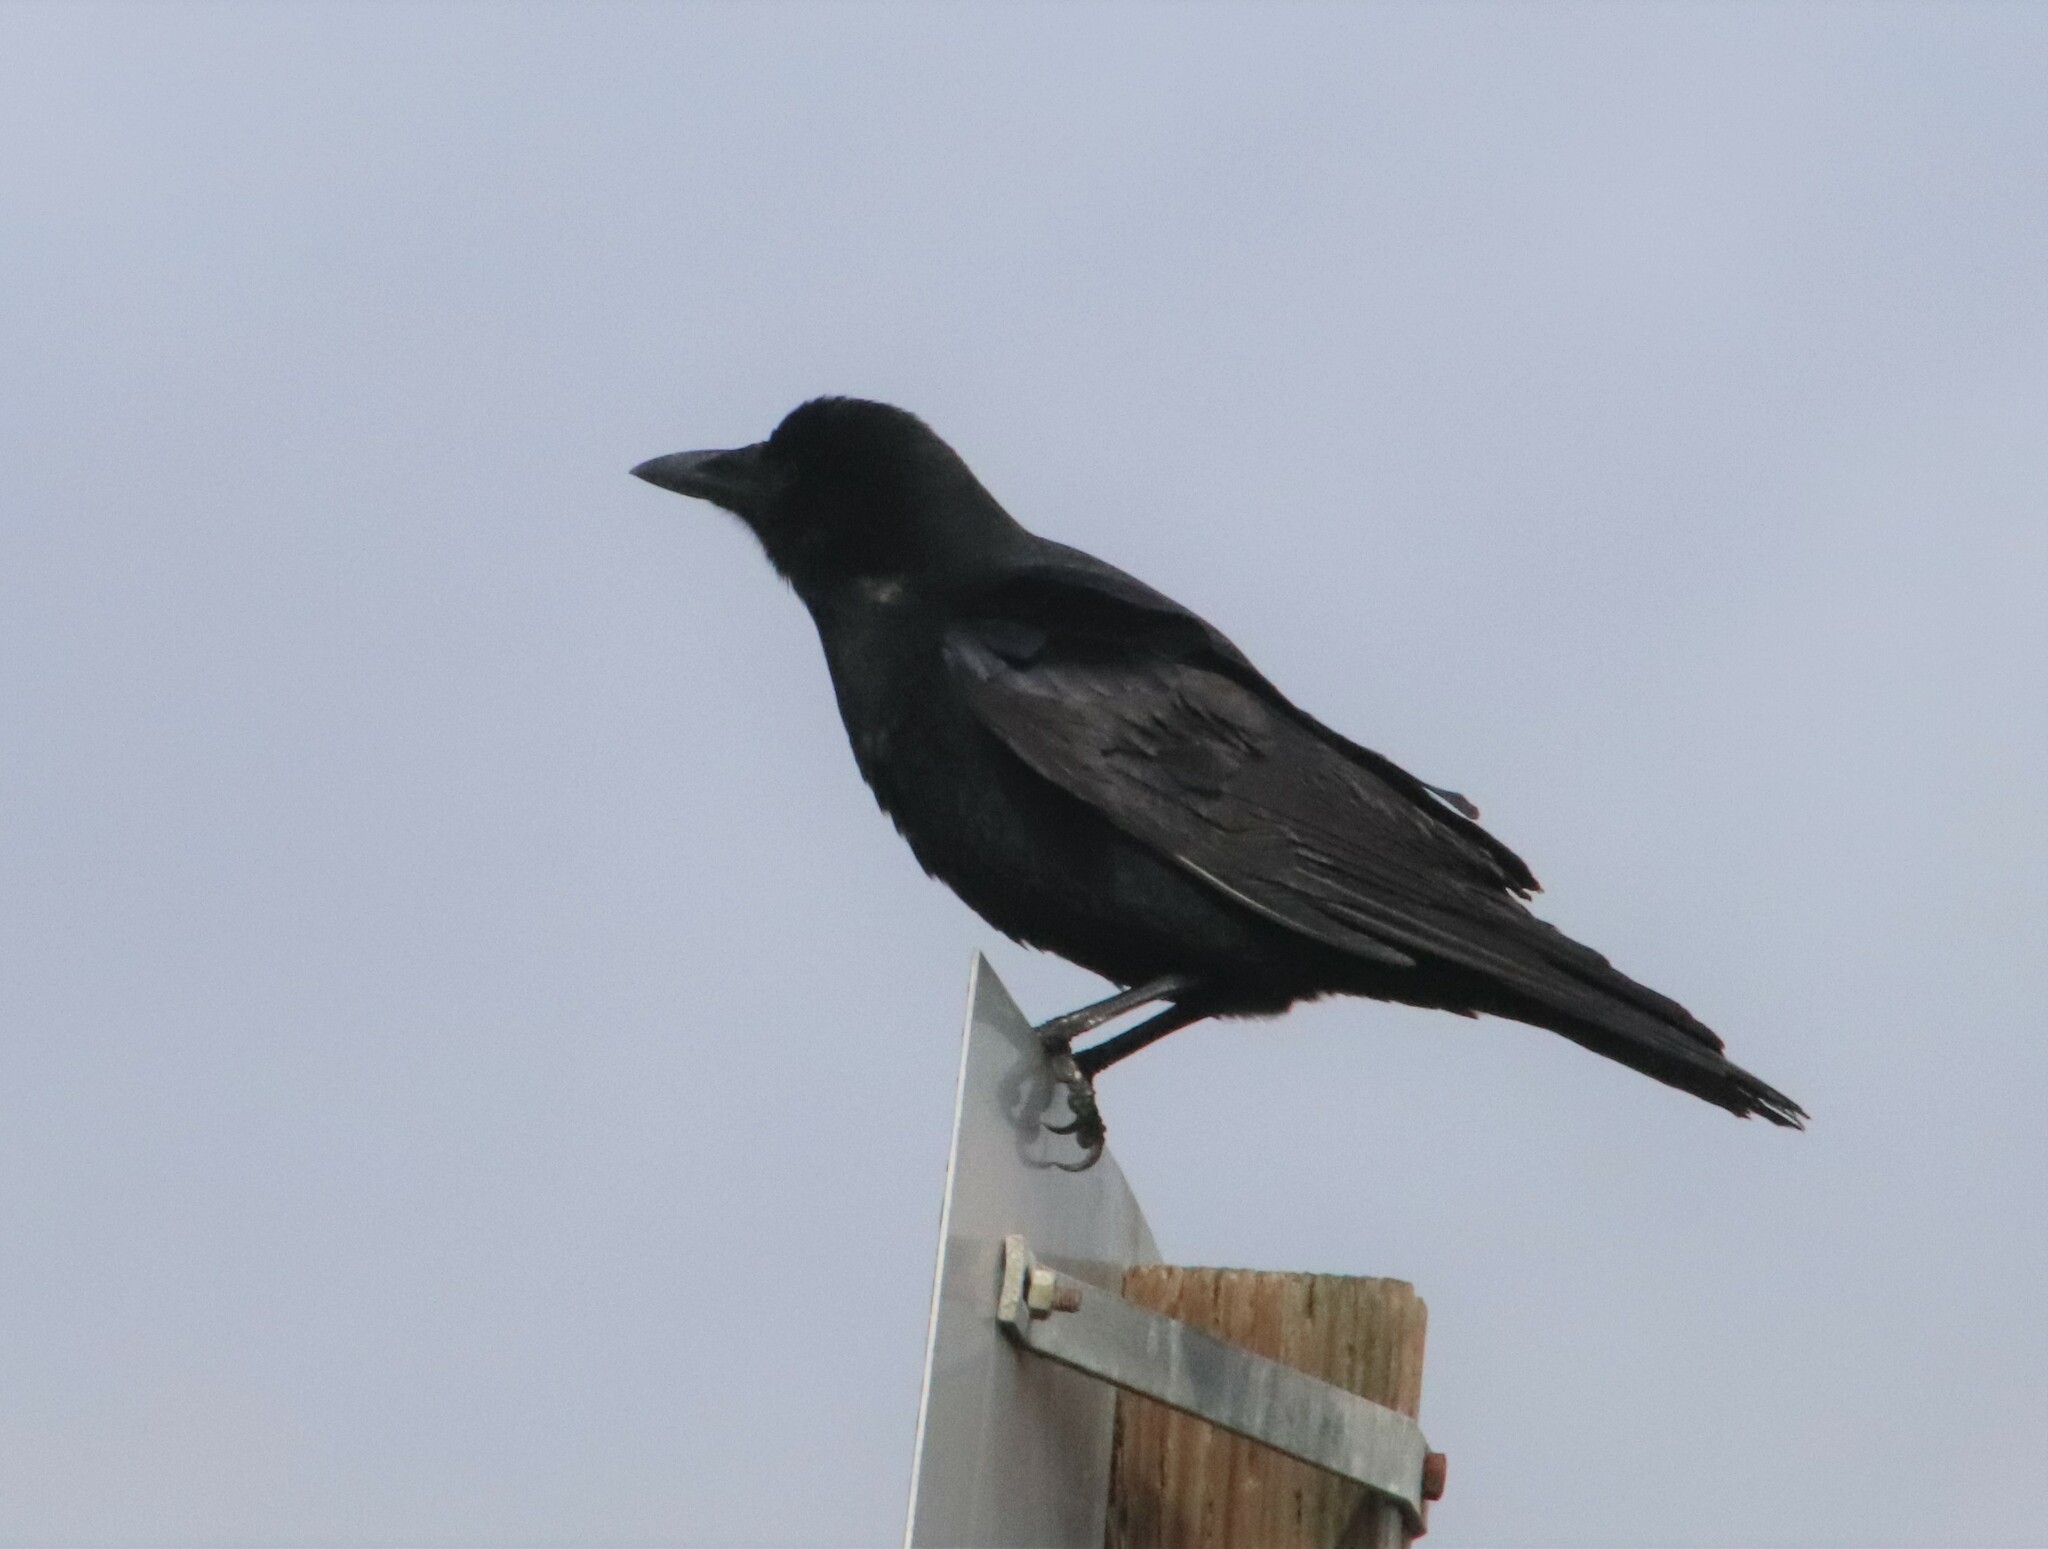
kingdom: Animalia
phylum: Chordata
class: Aves
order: Passeriformes
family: Corvidae
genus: Corvus
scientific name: Corvus brachyrhynchos
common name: American crow
